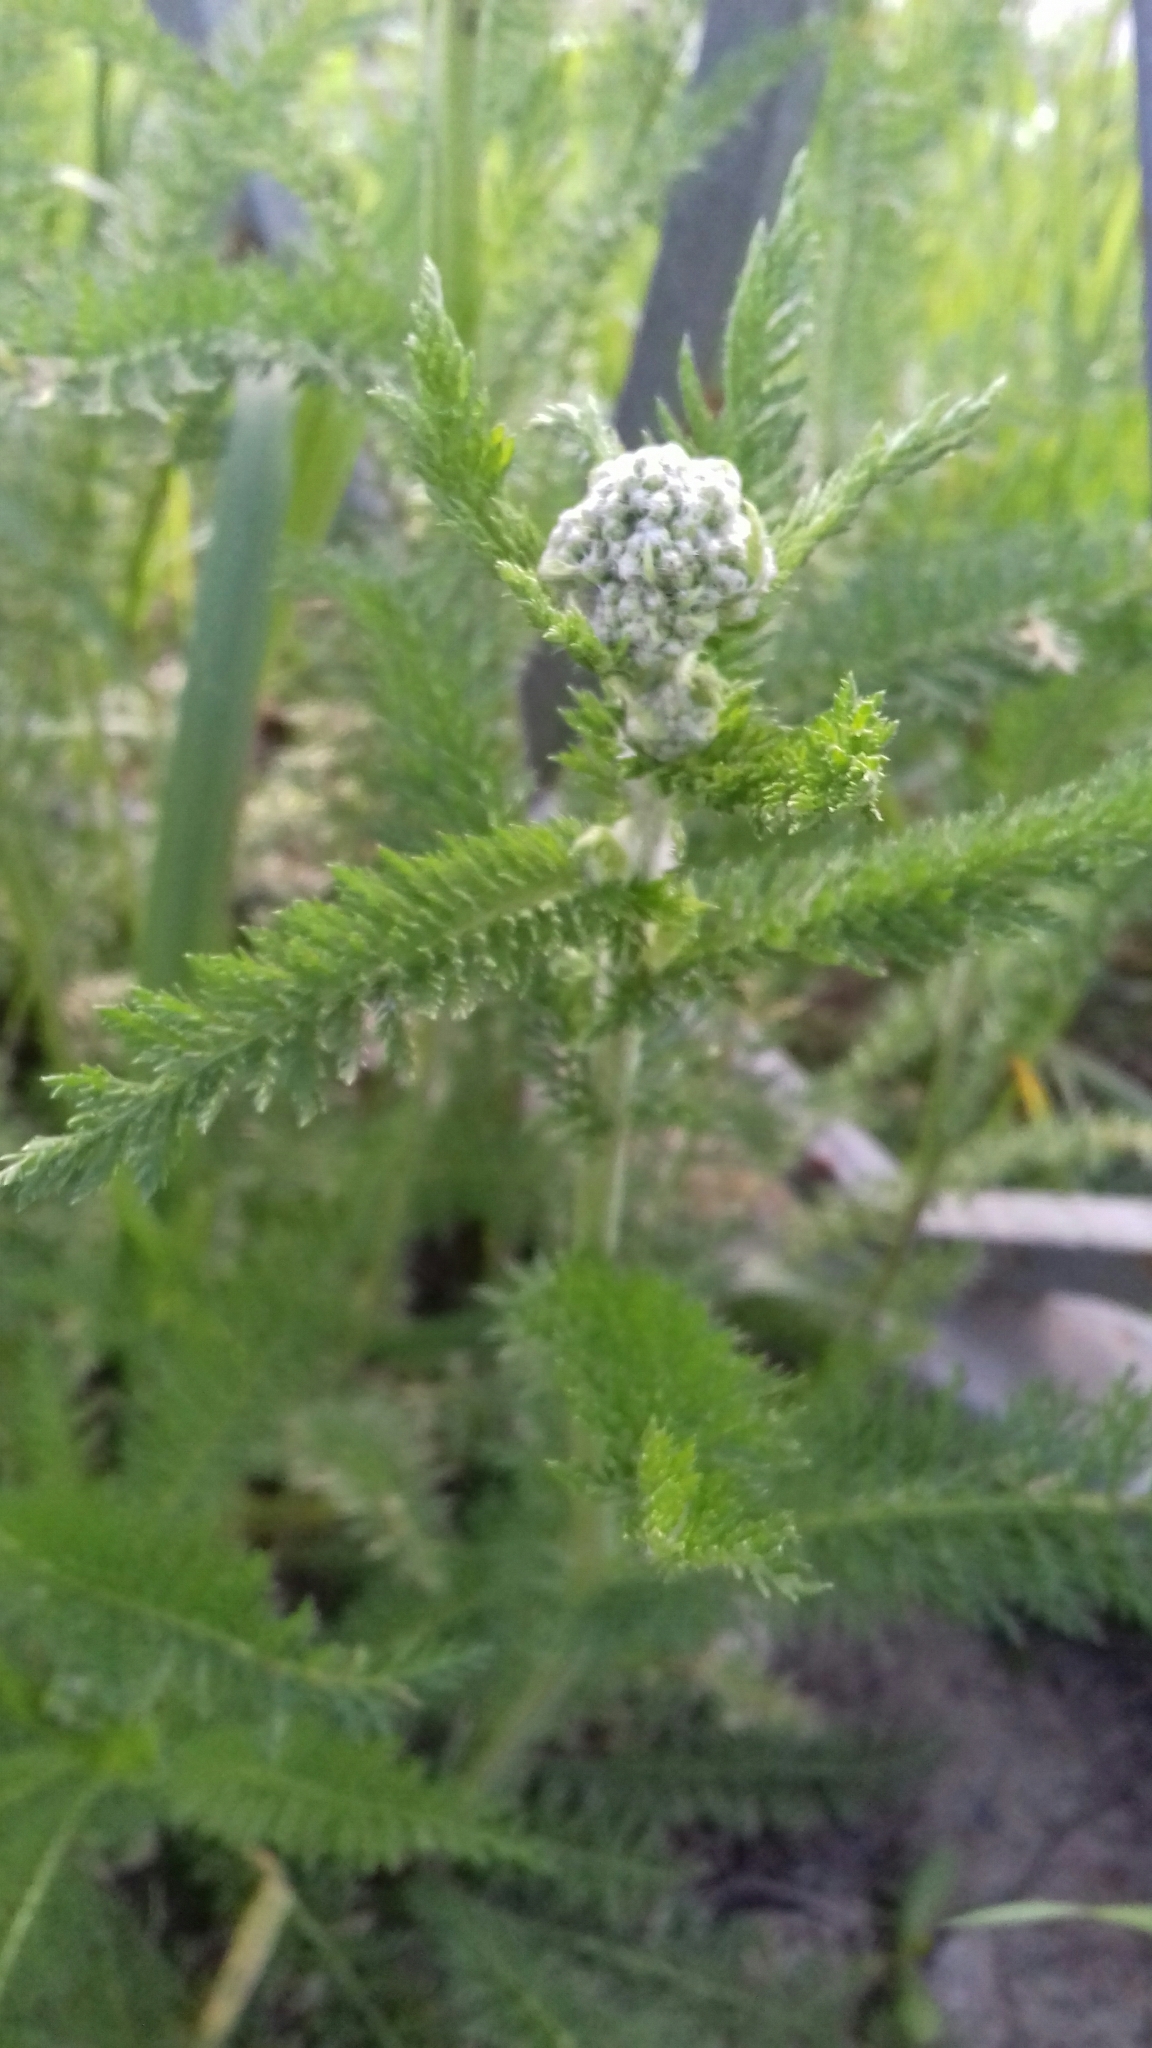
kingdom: Plantae
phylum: Tracheophyta
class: Magnoliopsida
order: Asterales
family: Asteraceae
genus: Achillea
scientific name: Achillea millefolium
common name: Yarrow
